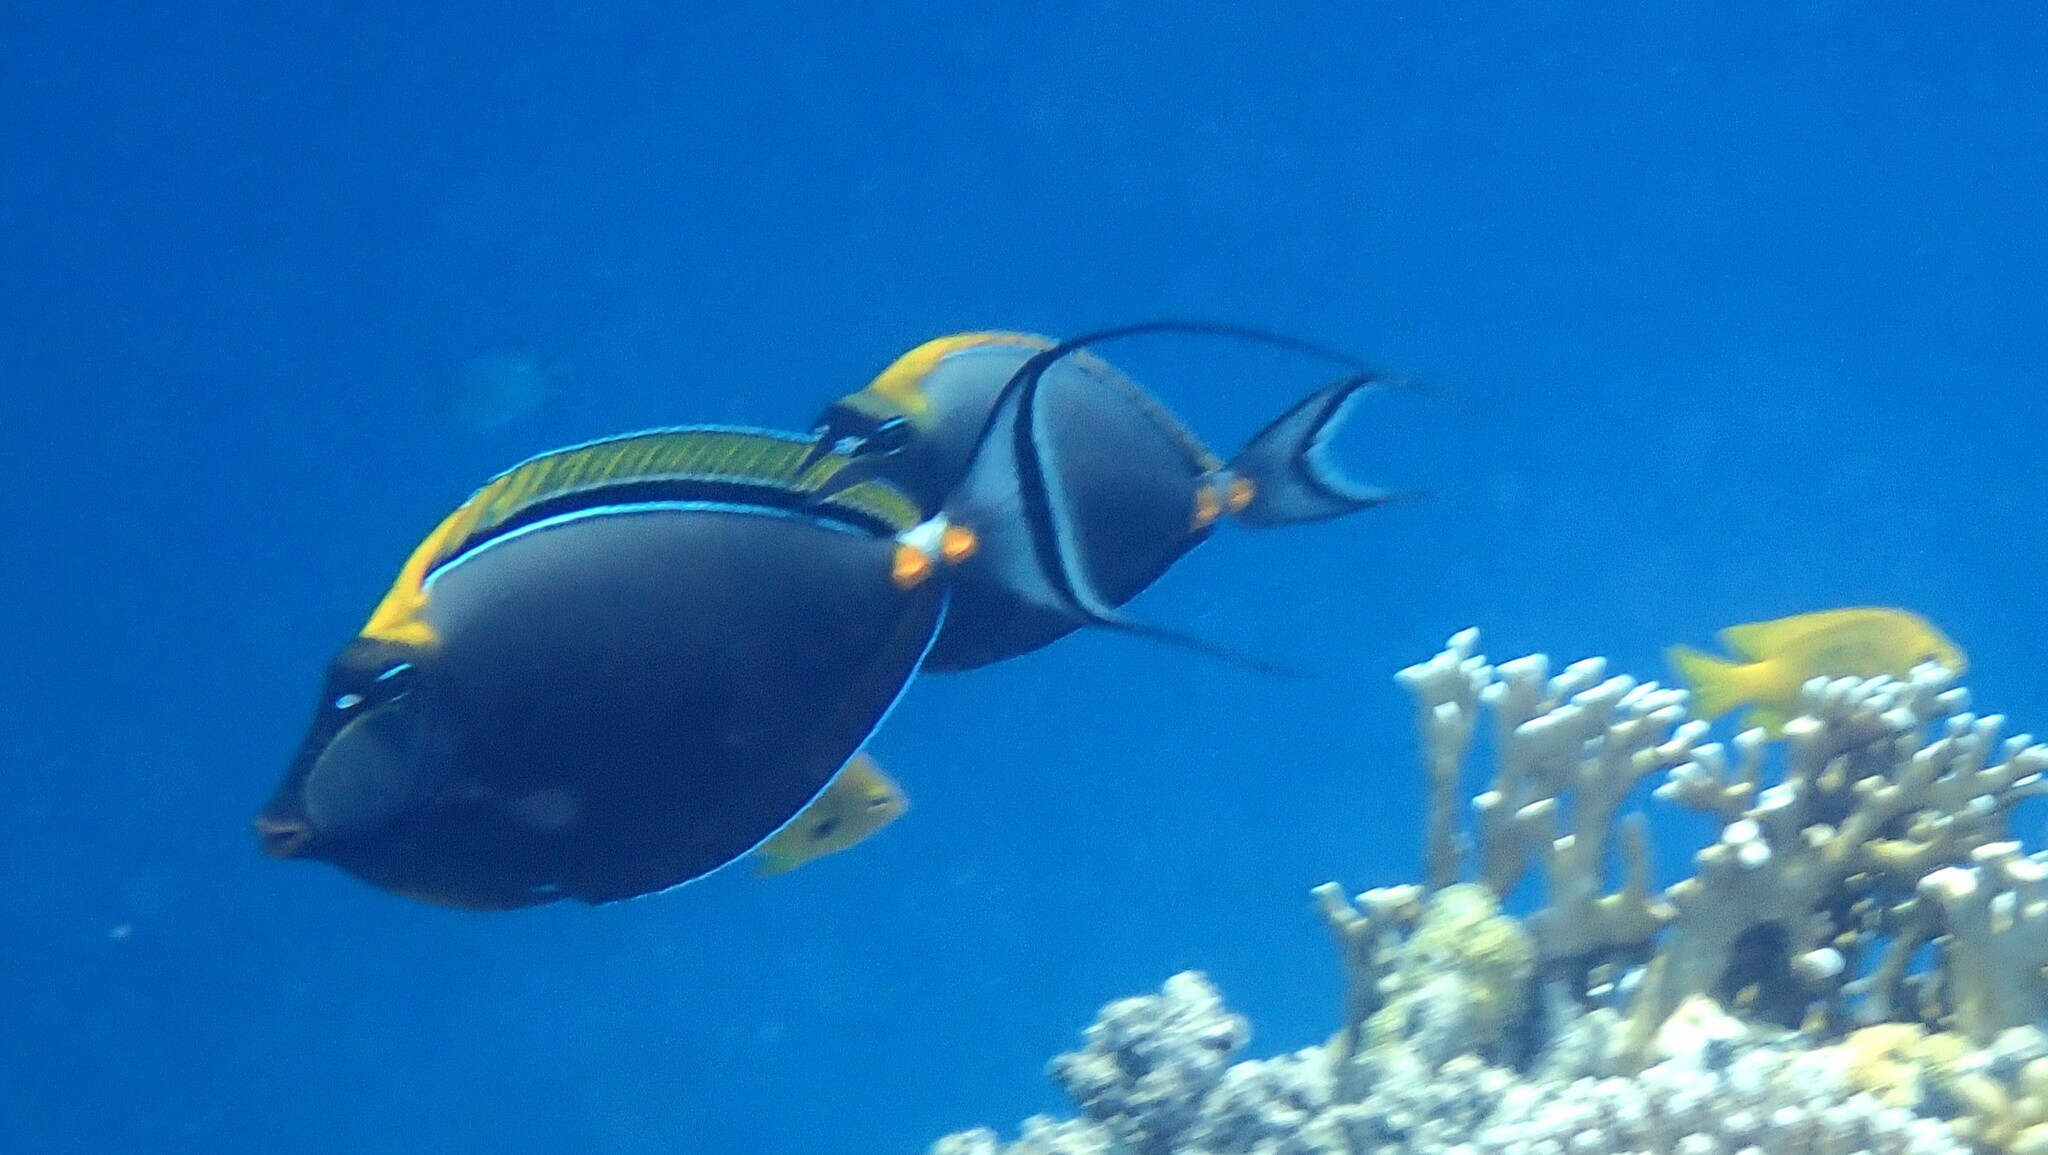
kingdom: Animalia
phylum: Chordata
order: Perciformes
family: Acanthuridae
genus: Naso
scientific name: Naso elegans
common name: Orangespine unicornfish
